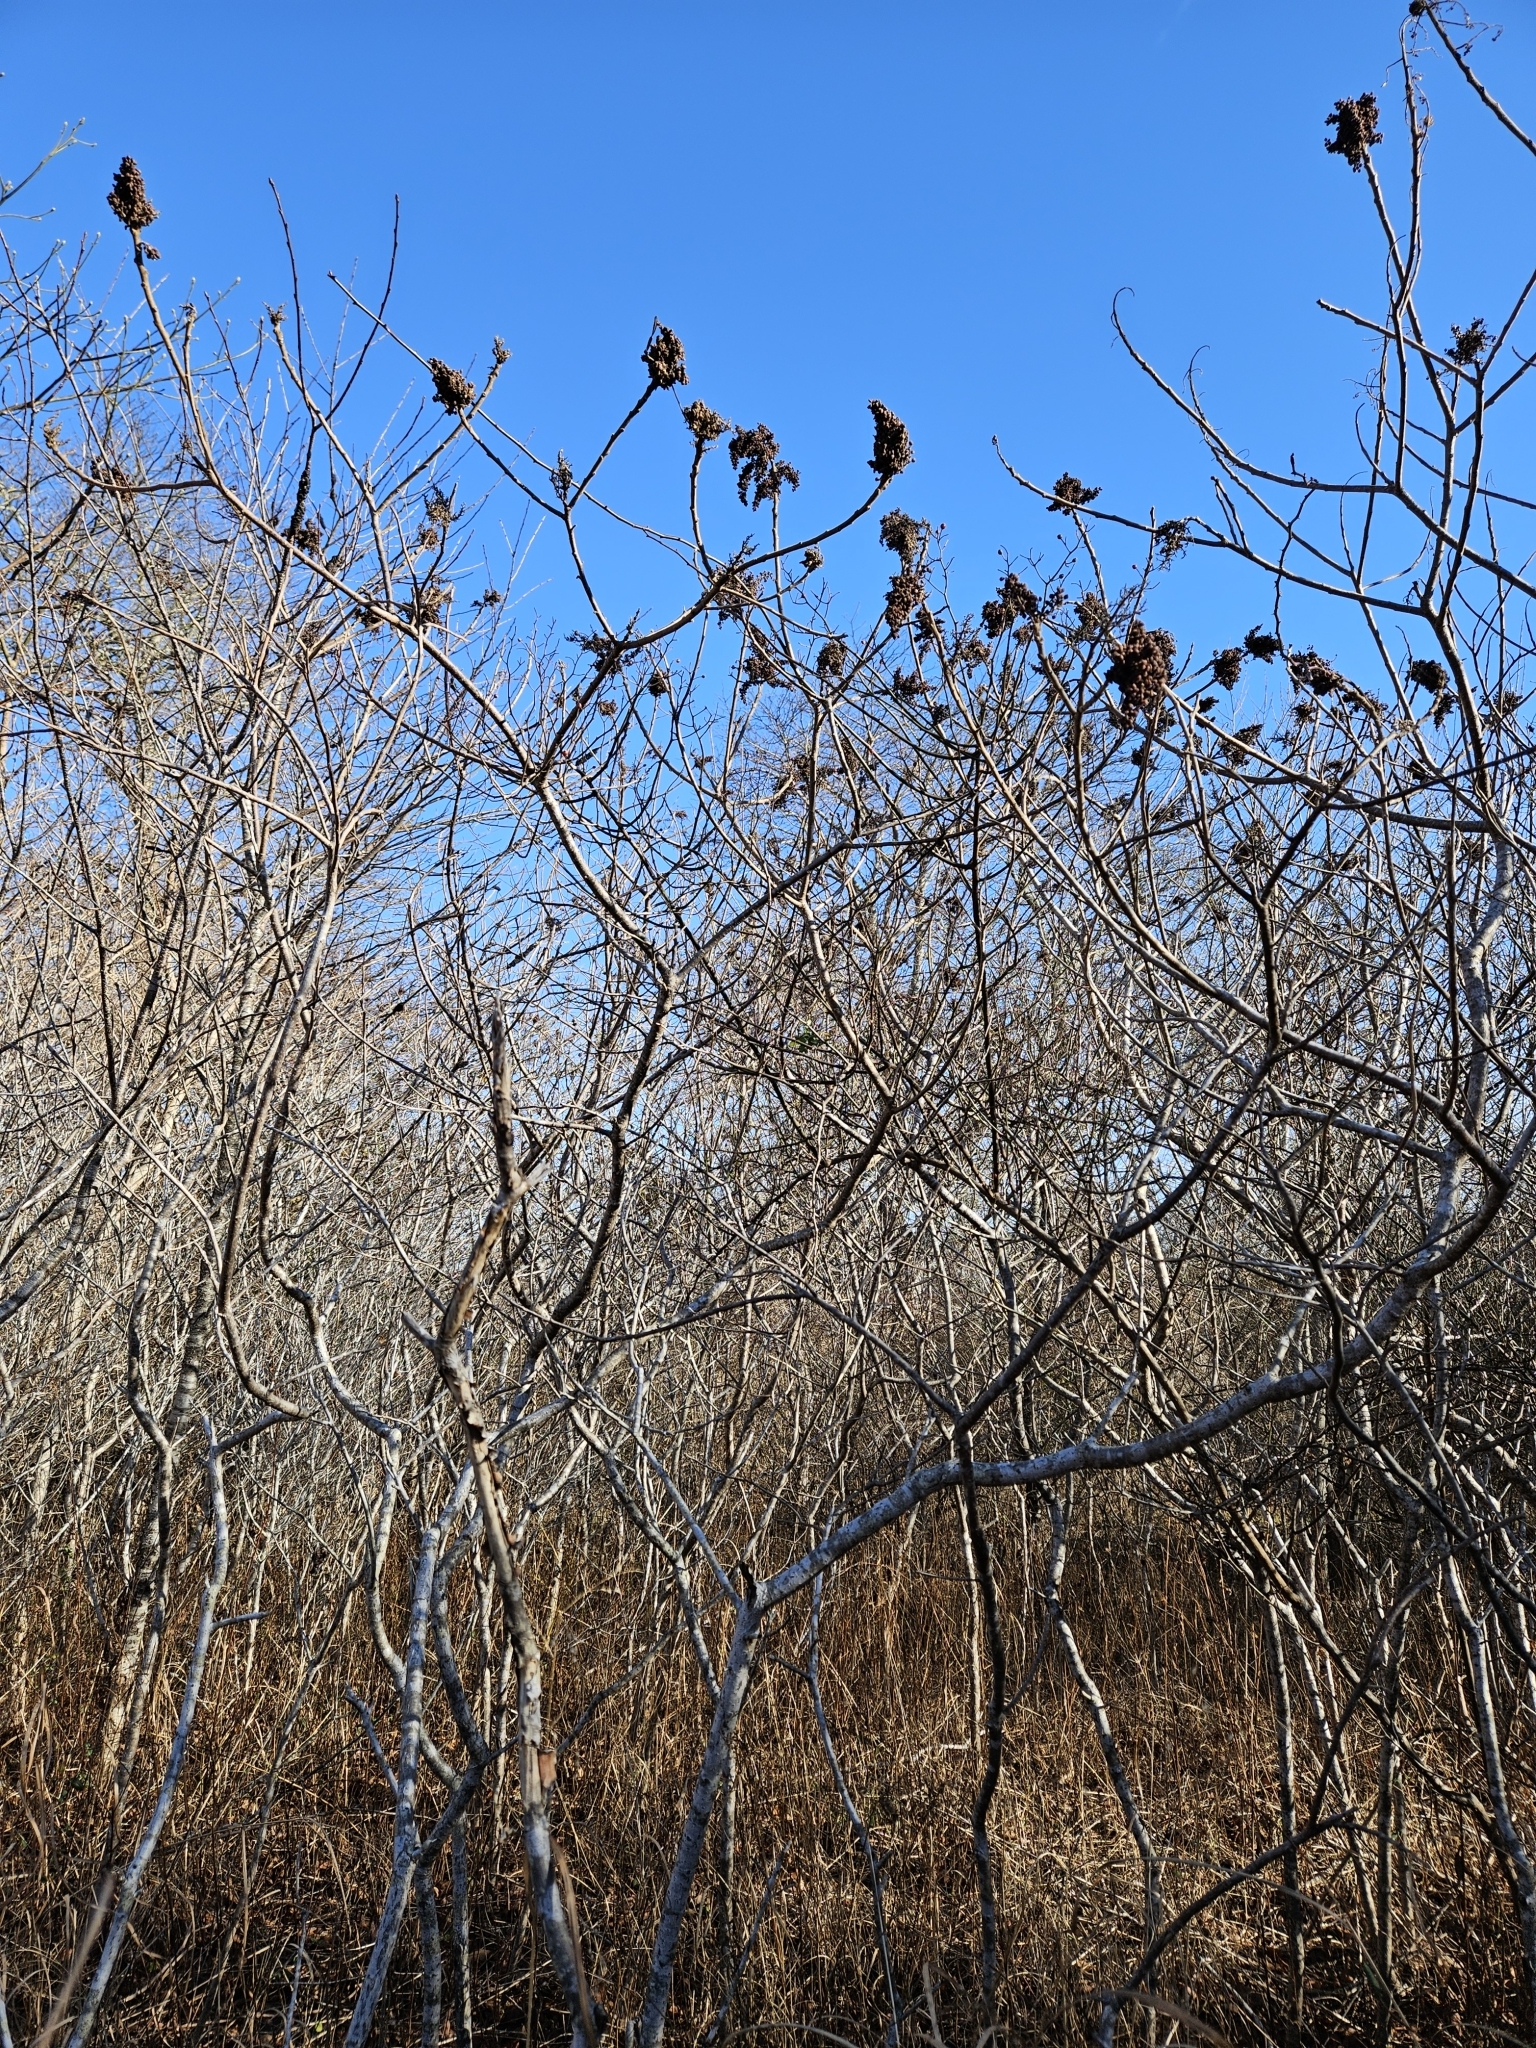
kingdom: Plantae
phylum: Tracheophyta
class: Magnoliopsida
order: Sapindales
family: Anacardiaceae
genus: Rhus
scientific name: Rhus copallina
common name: Shining sumac
